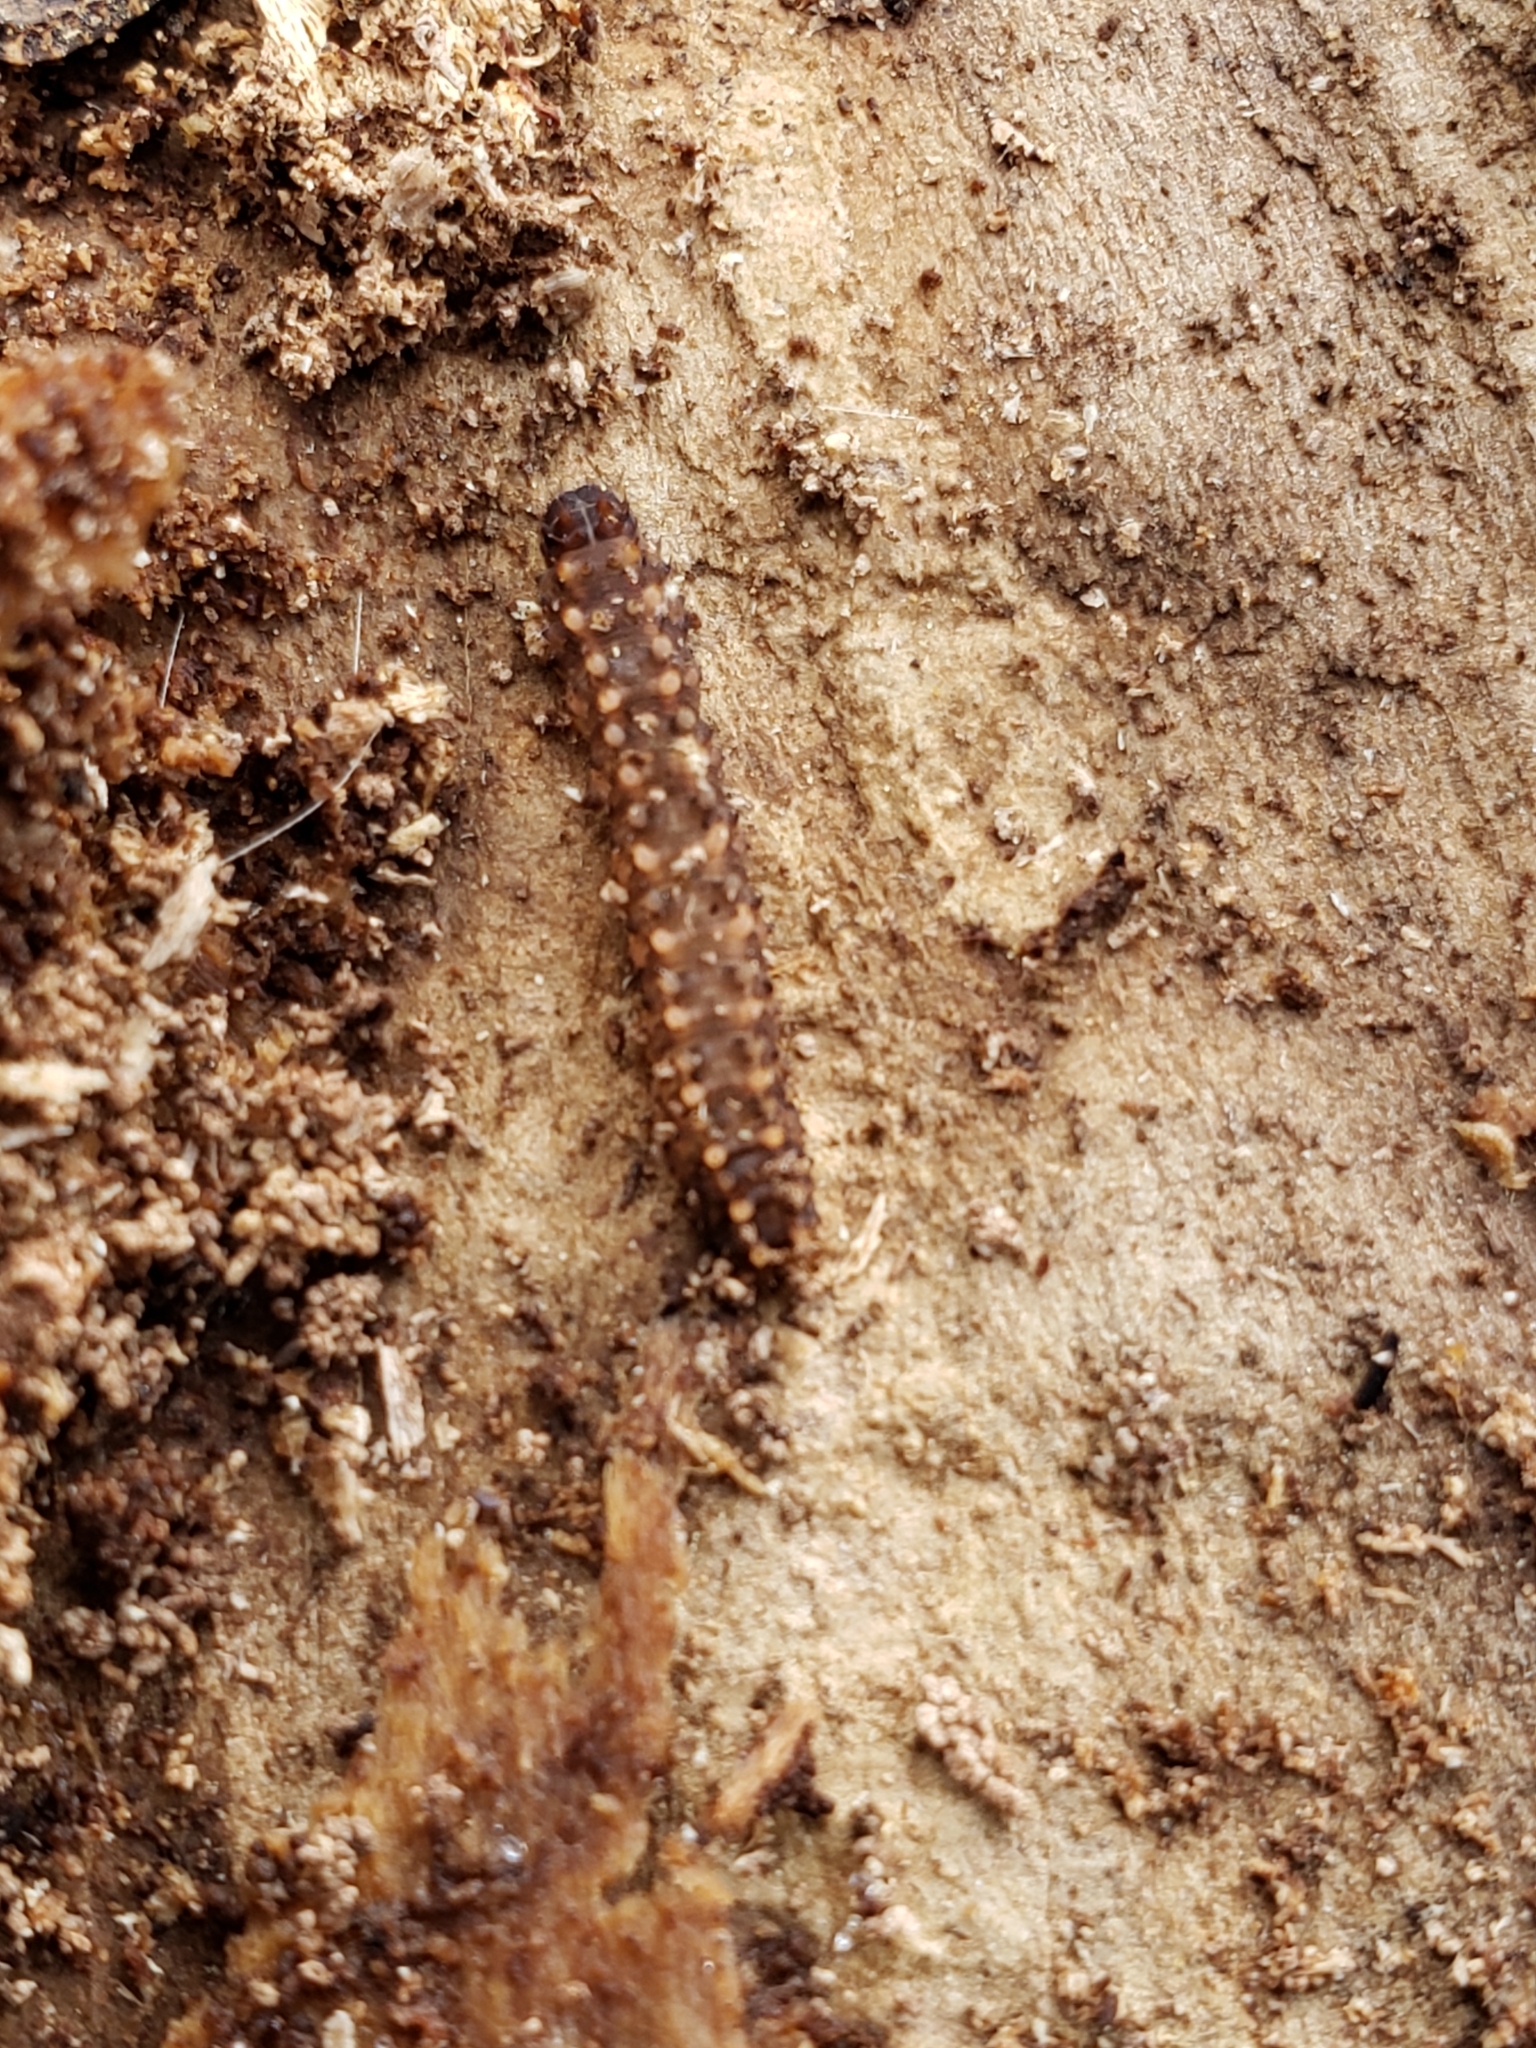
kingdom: Animalia
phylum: Arthropoda
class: Insecta
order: Lepidoptera
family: Erebidae
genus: Idia
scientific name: Idia lubricalis
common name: Twin-striped tabby
